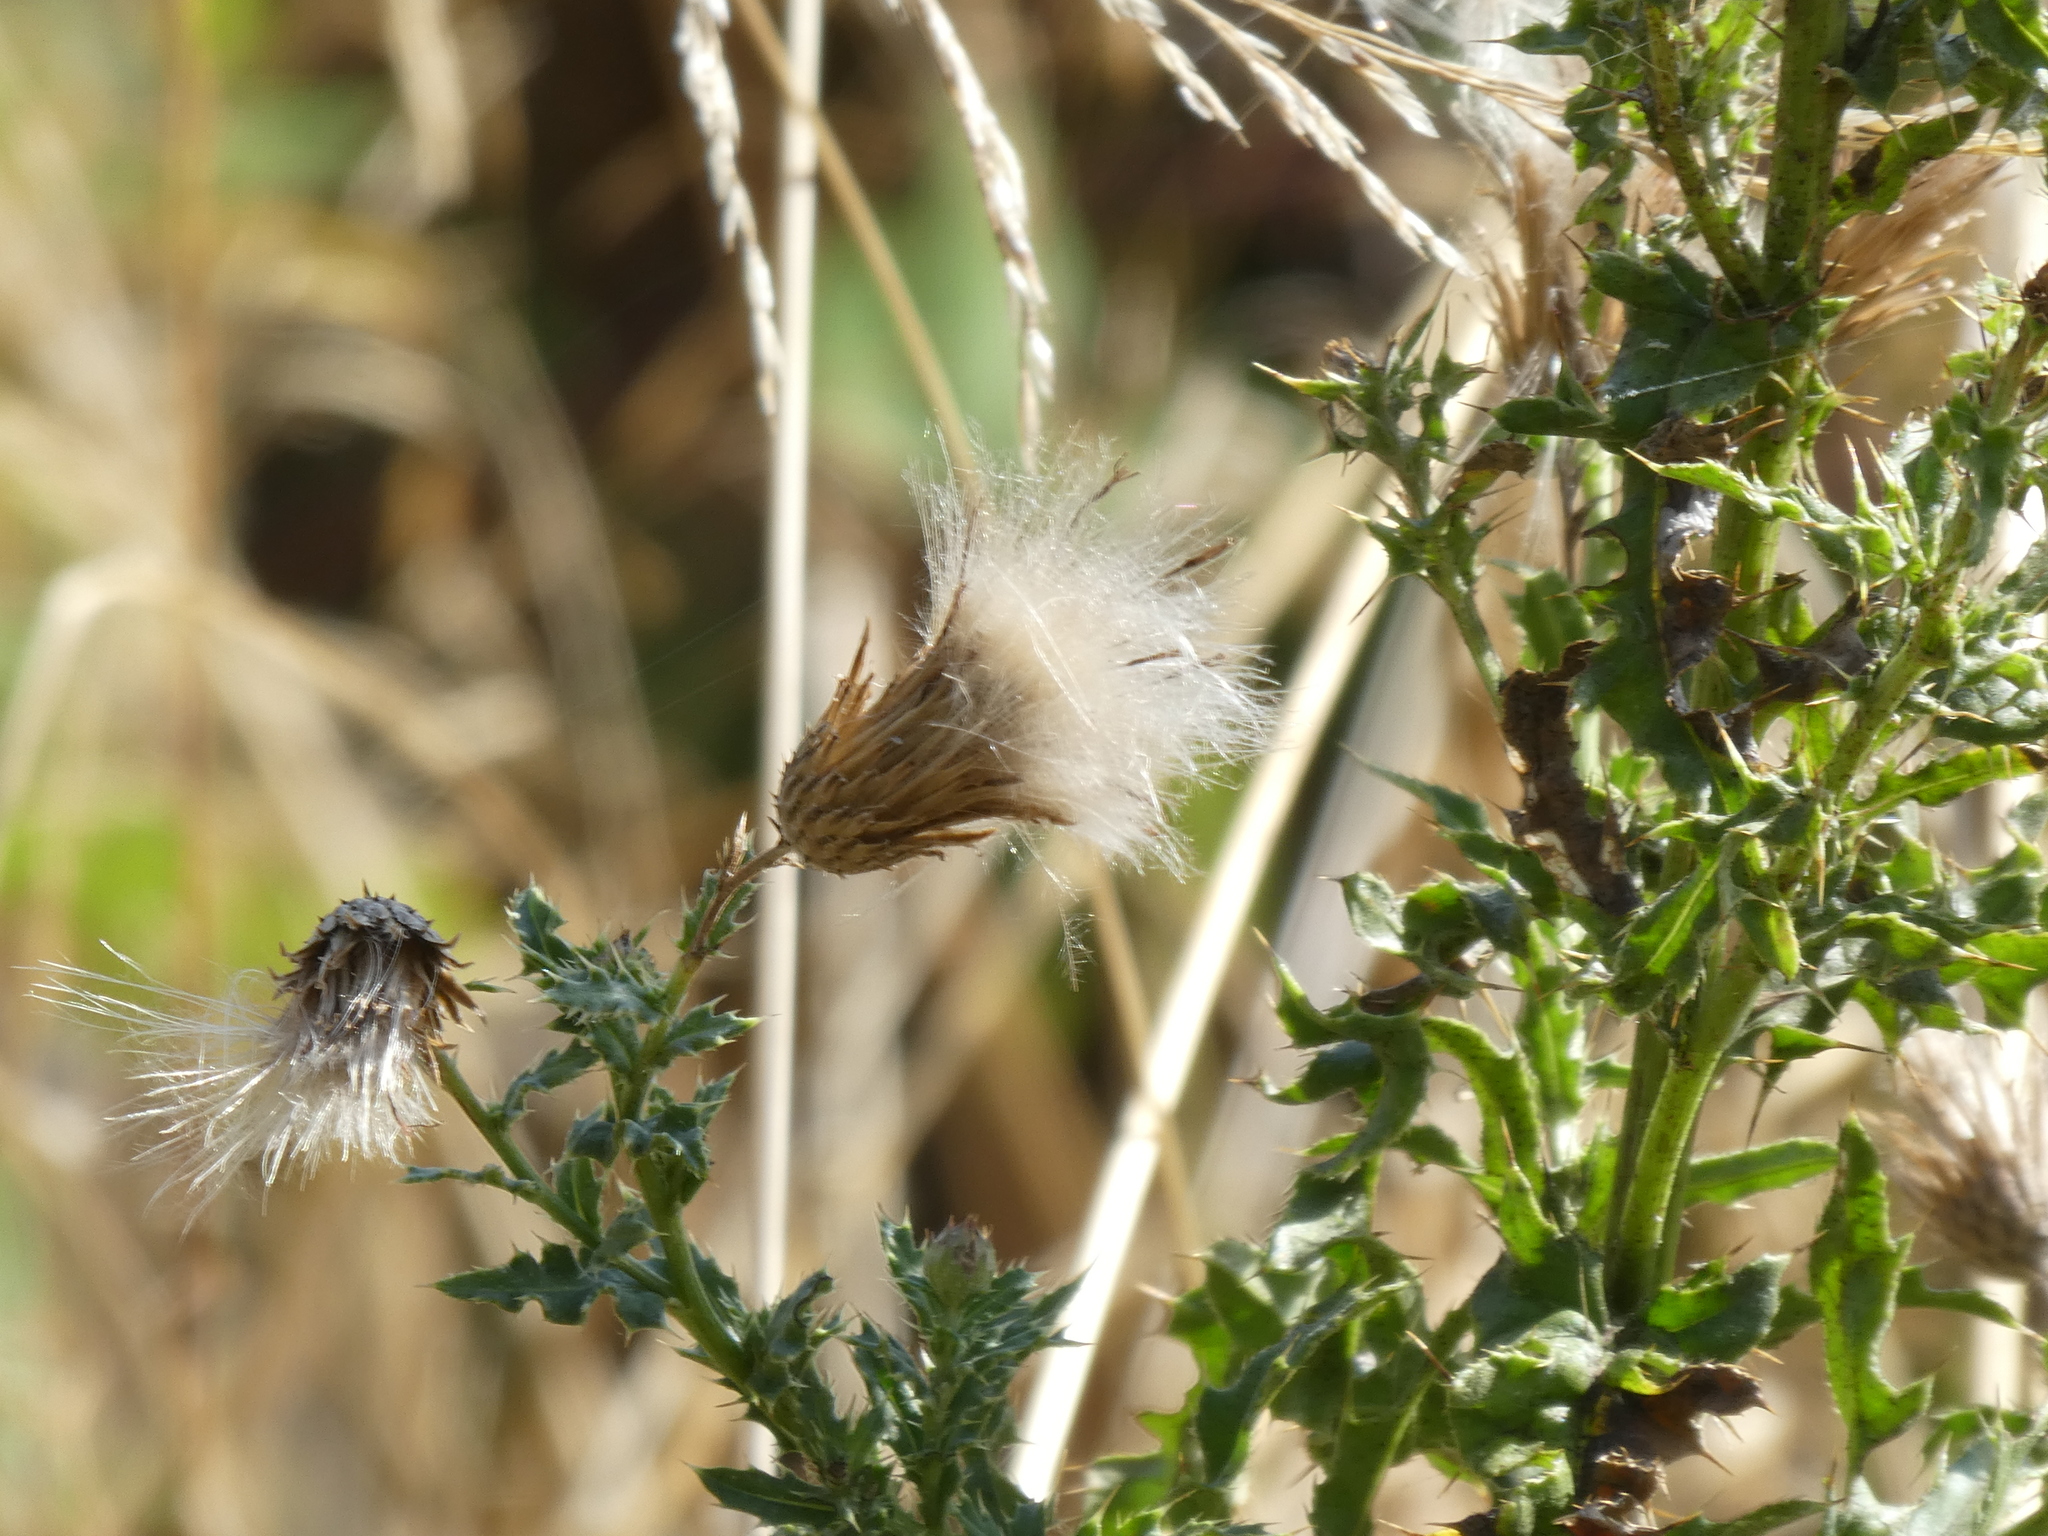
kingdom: Plantae
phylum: Tracheophyta
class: Magnoliopsida
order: Asterales
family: Asteraceae
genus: Cirsium
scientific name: Cirsium arvense
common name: Creeping thistle
